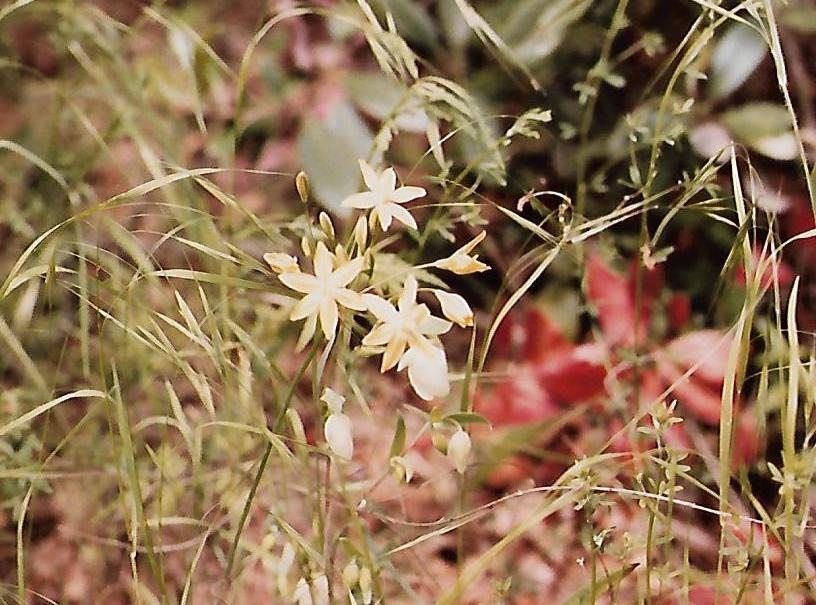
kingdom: Plantae
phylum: Tracheophyta
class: Liliopsida
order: Asparagales
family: Asparagaceae
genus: Triteleia
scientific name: Triteleia ixioides
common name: Yellow-brodiaea
